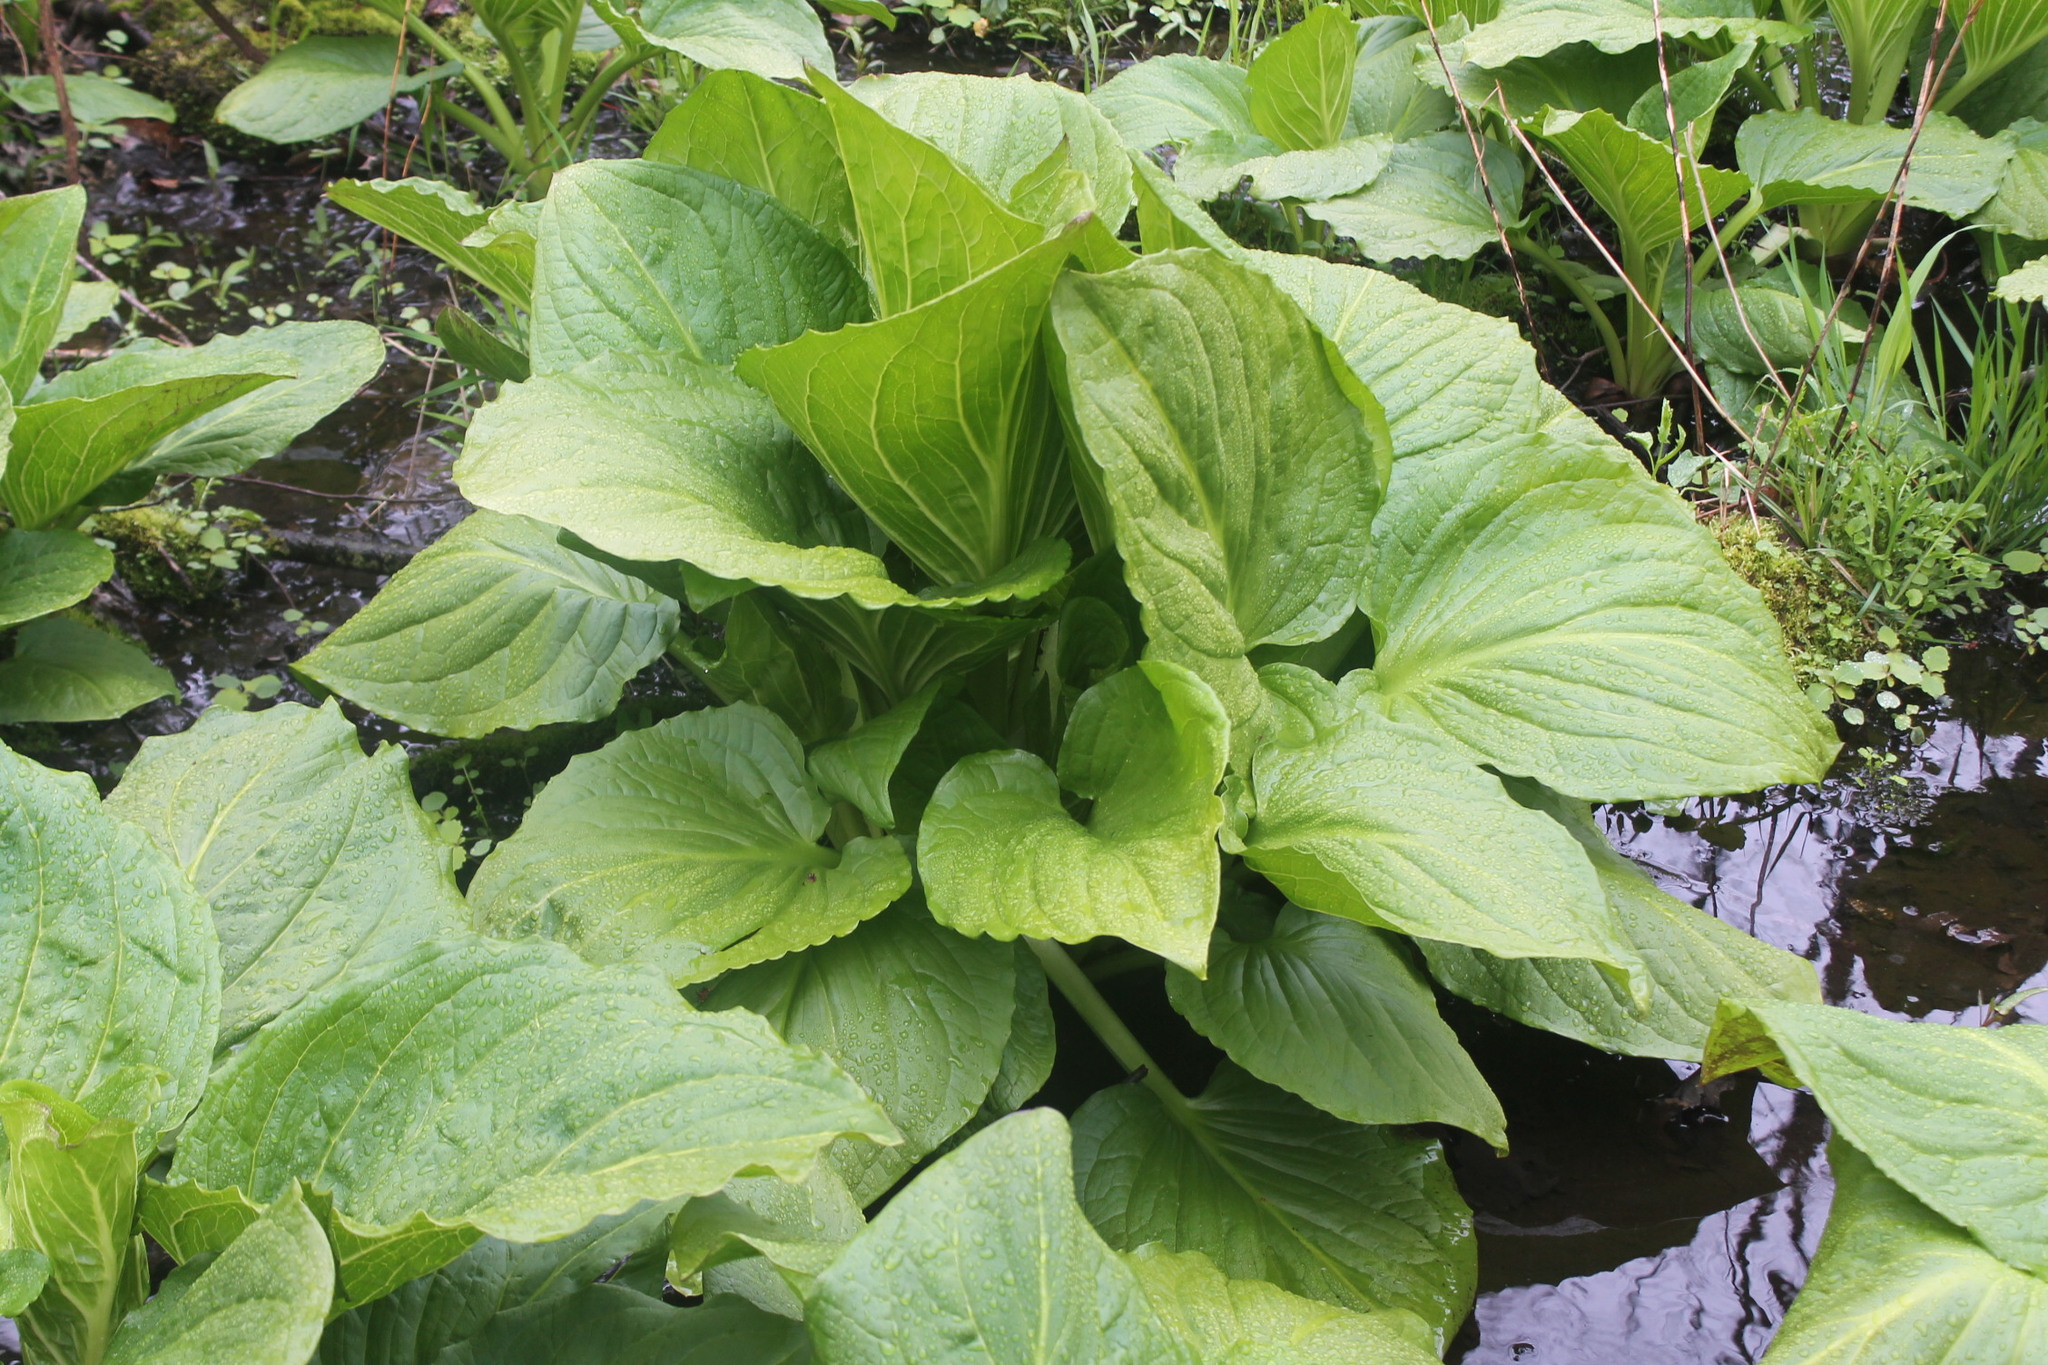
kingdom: Plantae
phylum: Tracheophyta
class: Liliopsida
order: Alismatales
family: Araceae
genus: Symplocarpus
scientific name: Symplocarpus foetidus
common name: Eastern skunk cabbage
